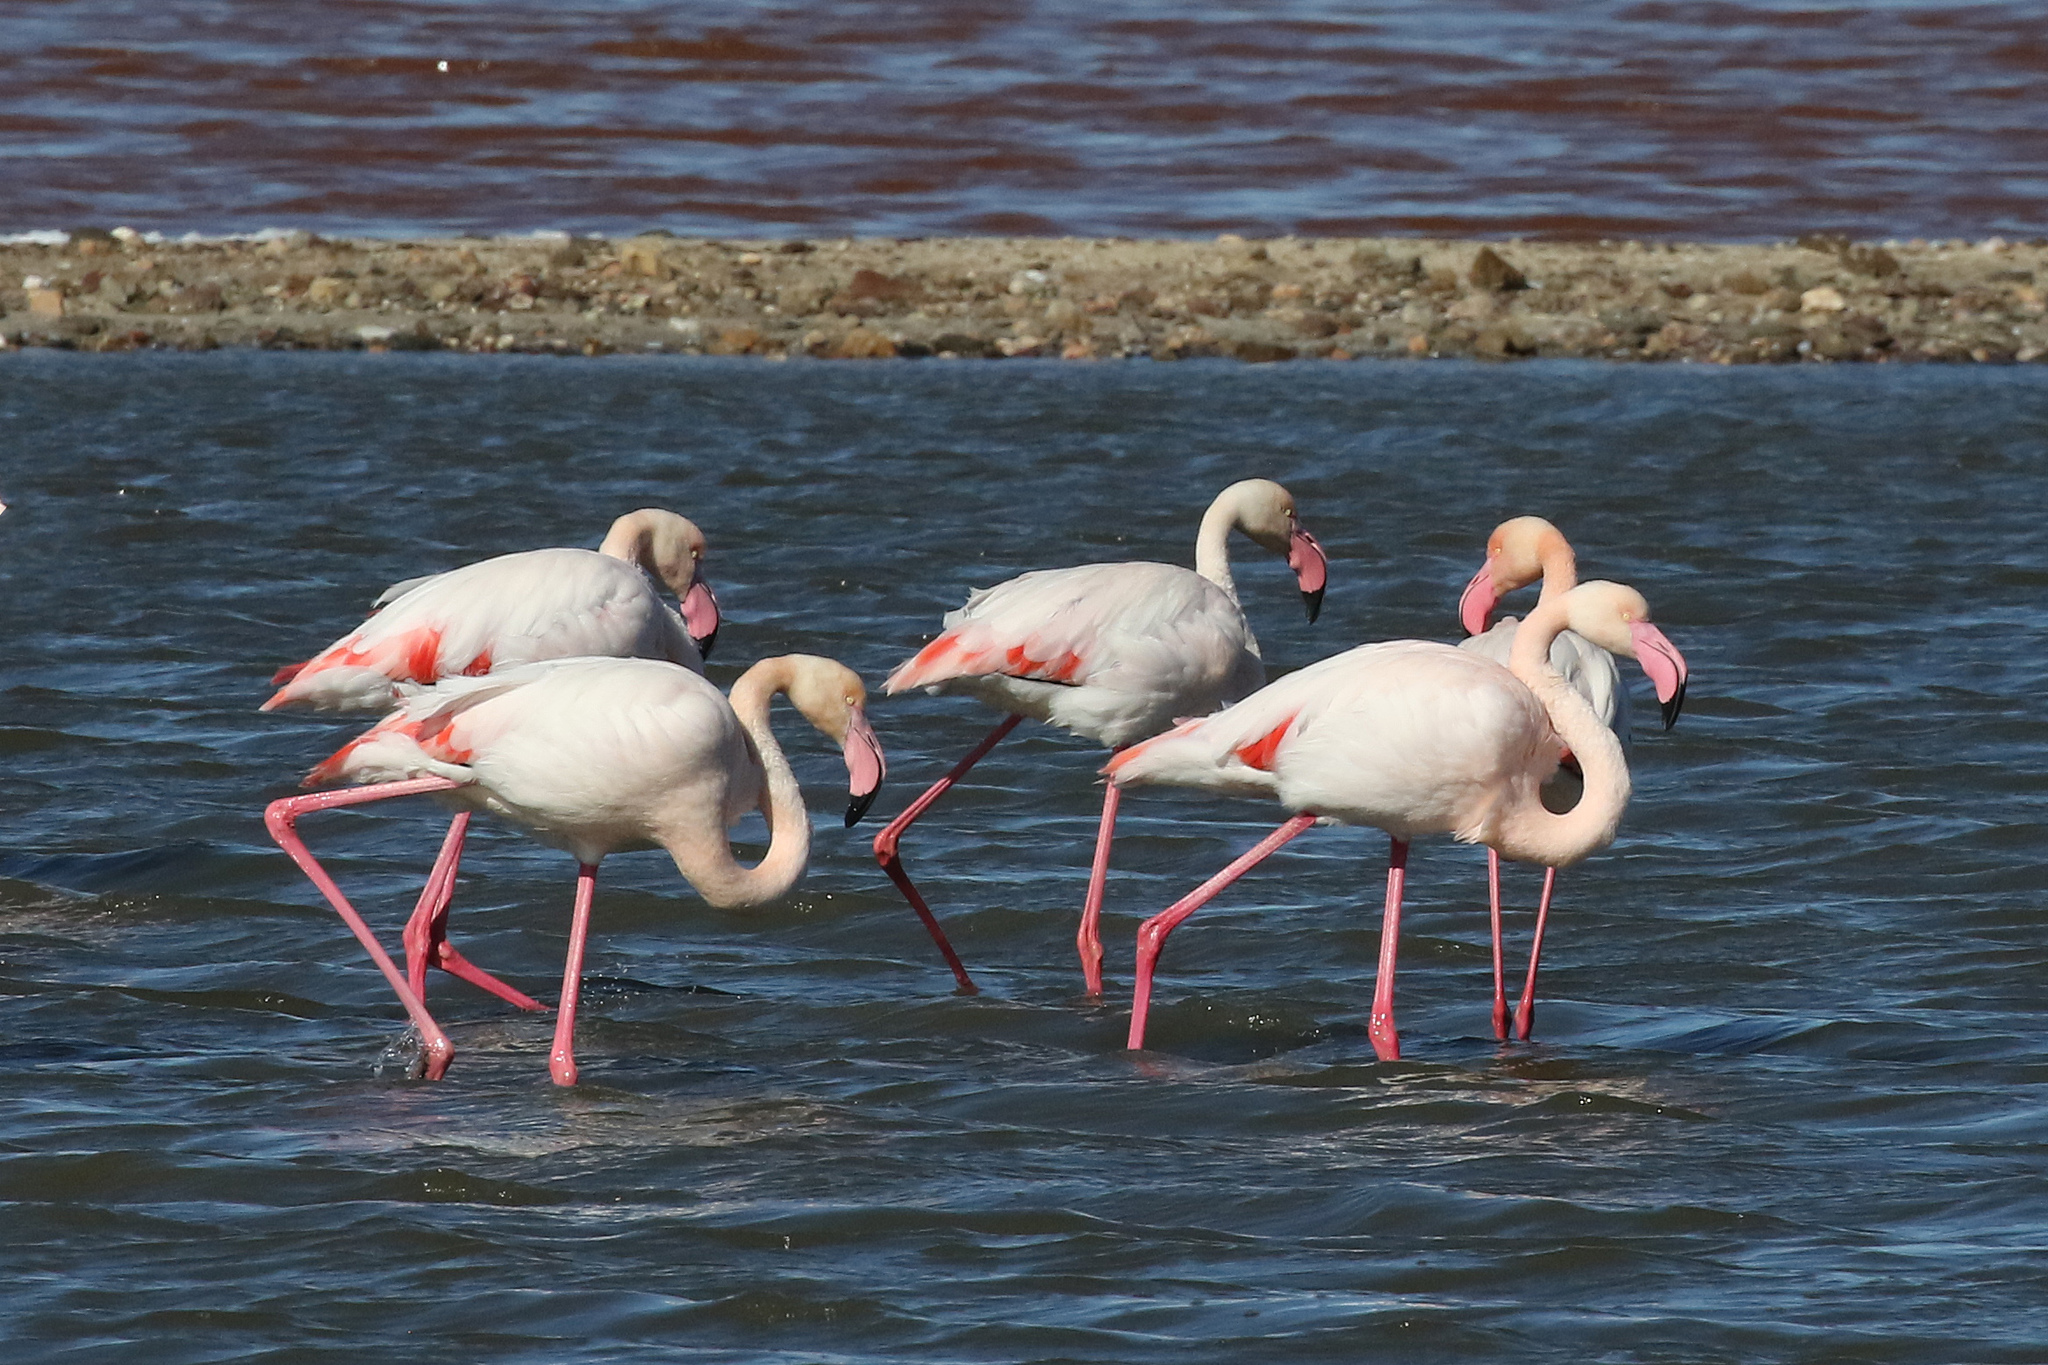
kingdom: Animalia
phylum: Chordata
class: Aves
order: Phoenicopteriformes
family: Phoenicopteridae
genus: Phoenicopterus
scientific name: Phoenicopterus roseus
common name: Greater flamingo
